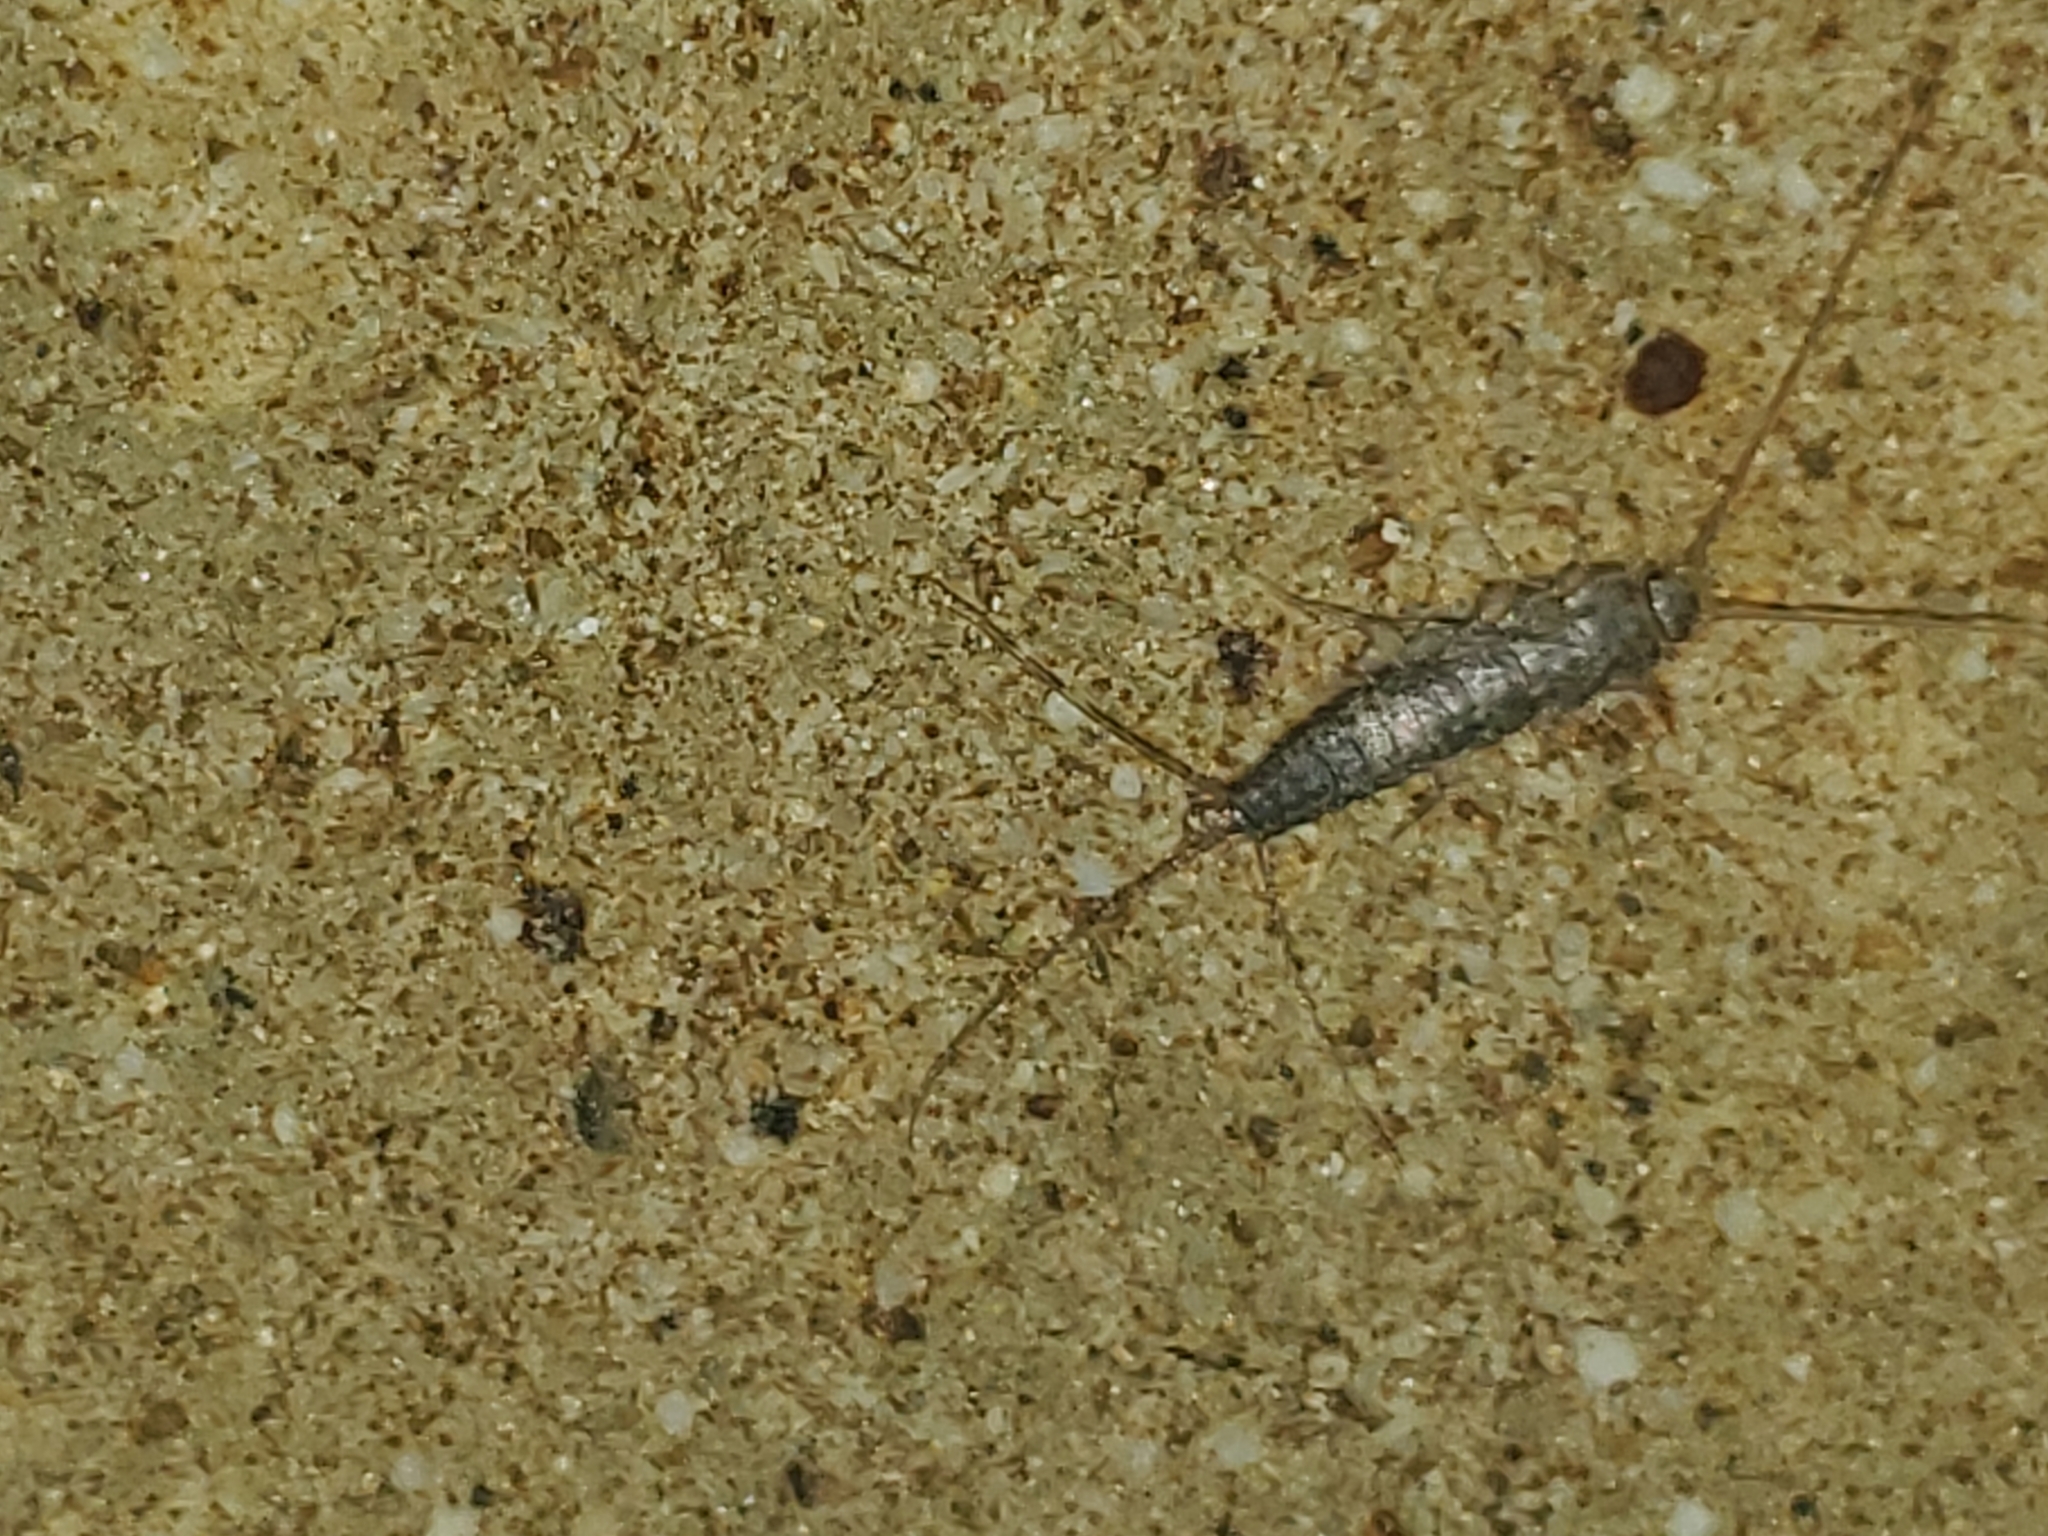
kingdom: Animalia
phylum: Arthropoda
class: Insecta
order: Zygentoma
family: Lepismatidae
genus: Ctenolepisma
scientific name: Ctenolepisma lineata
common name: Four-lined silverfish
